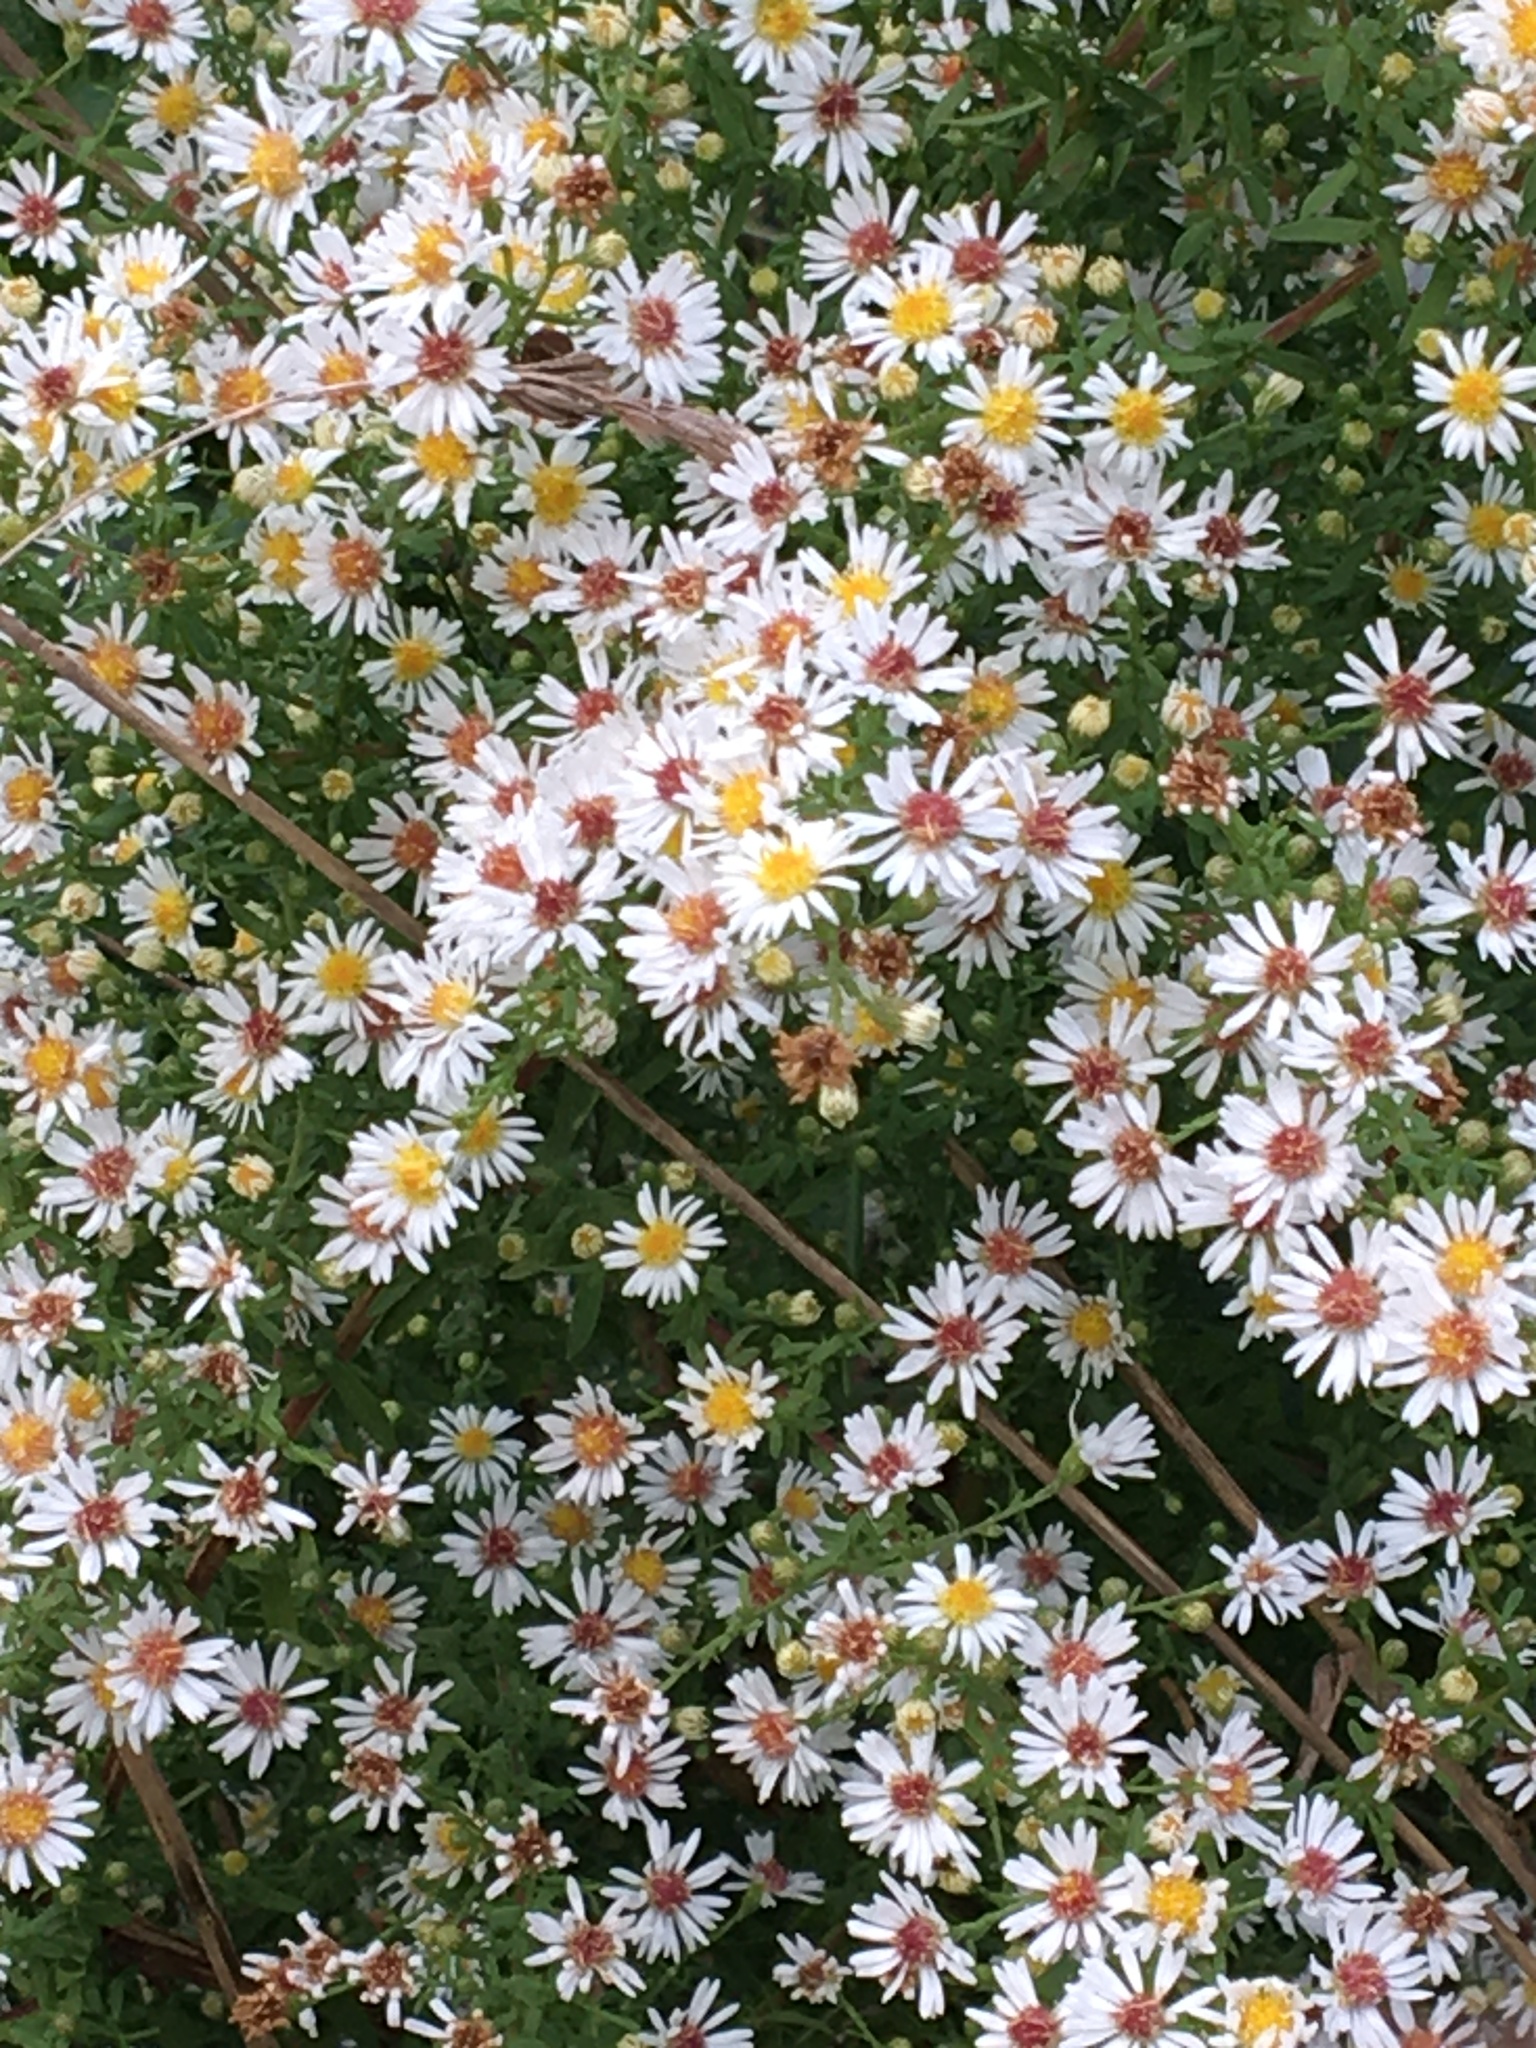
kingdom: Plantae
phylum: Tracheophyta
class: Magnoliopsida
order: Asterales
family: Asteraceae
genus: Symphyotrichum
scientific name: Symphyotrichum lateriflorum
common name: Calico aster
